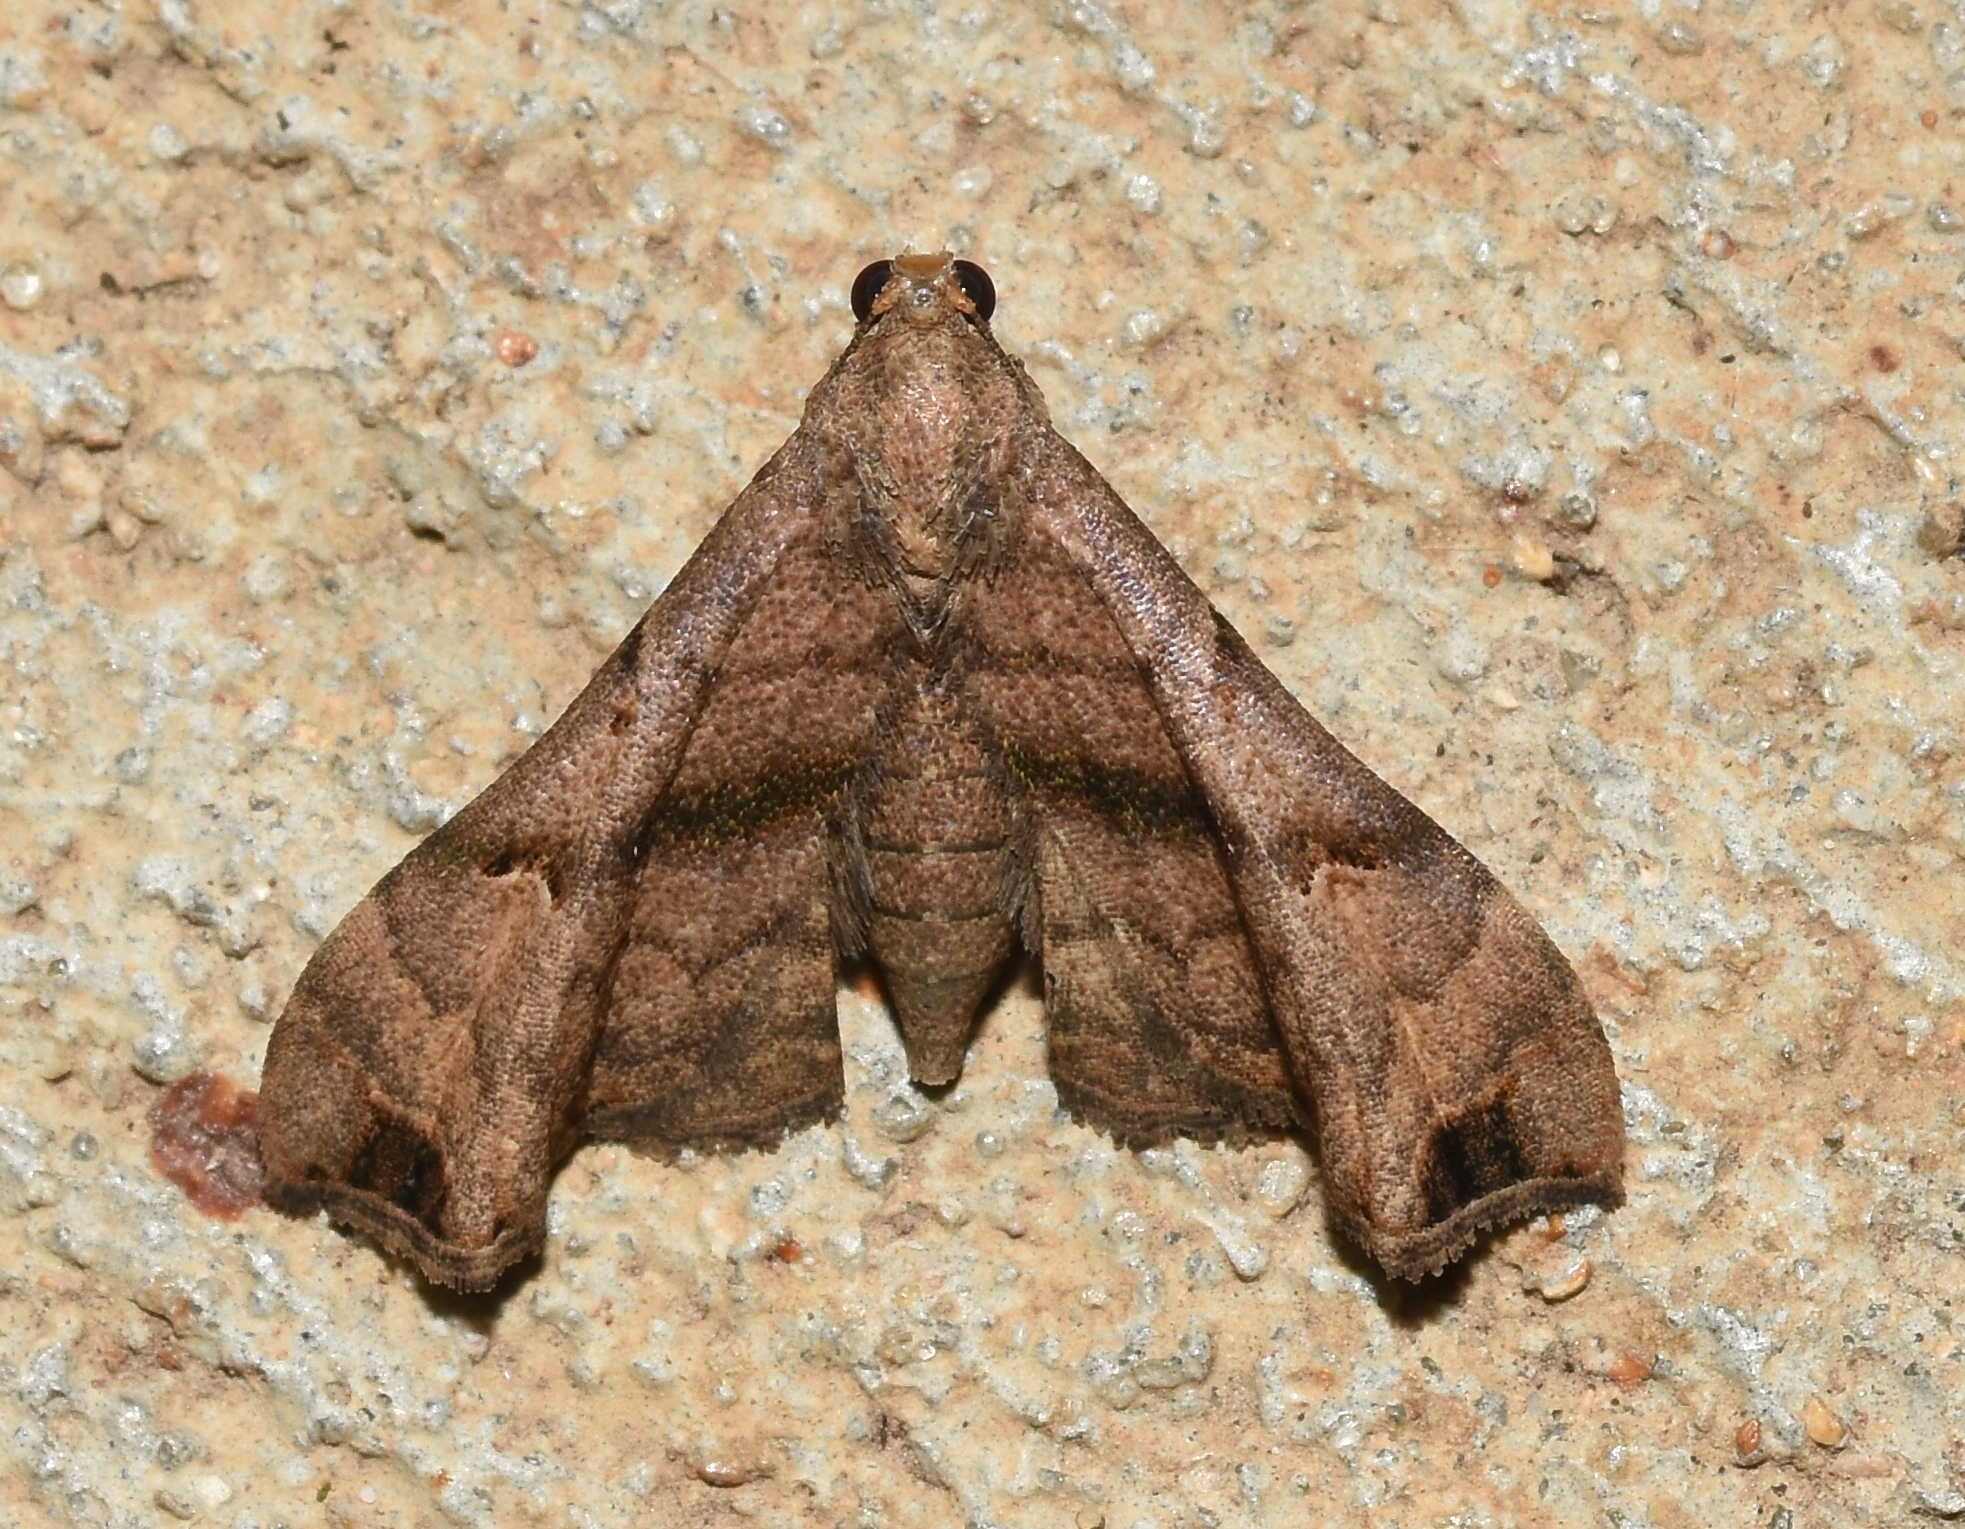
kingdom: Animalia
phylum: Arthropoda
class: Insecta
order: Lepidoptera
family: Erebidae
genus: Palthis
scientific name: Palthis asopialis
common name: Faint-spotted palthis moth
